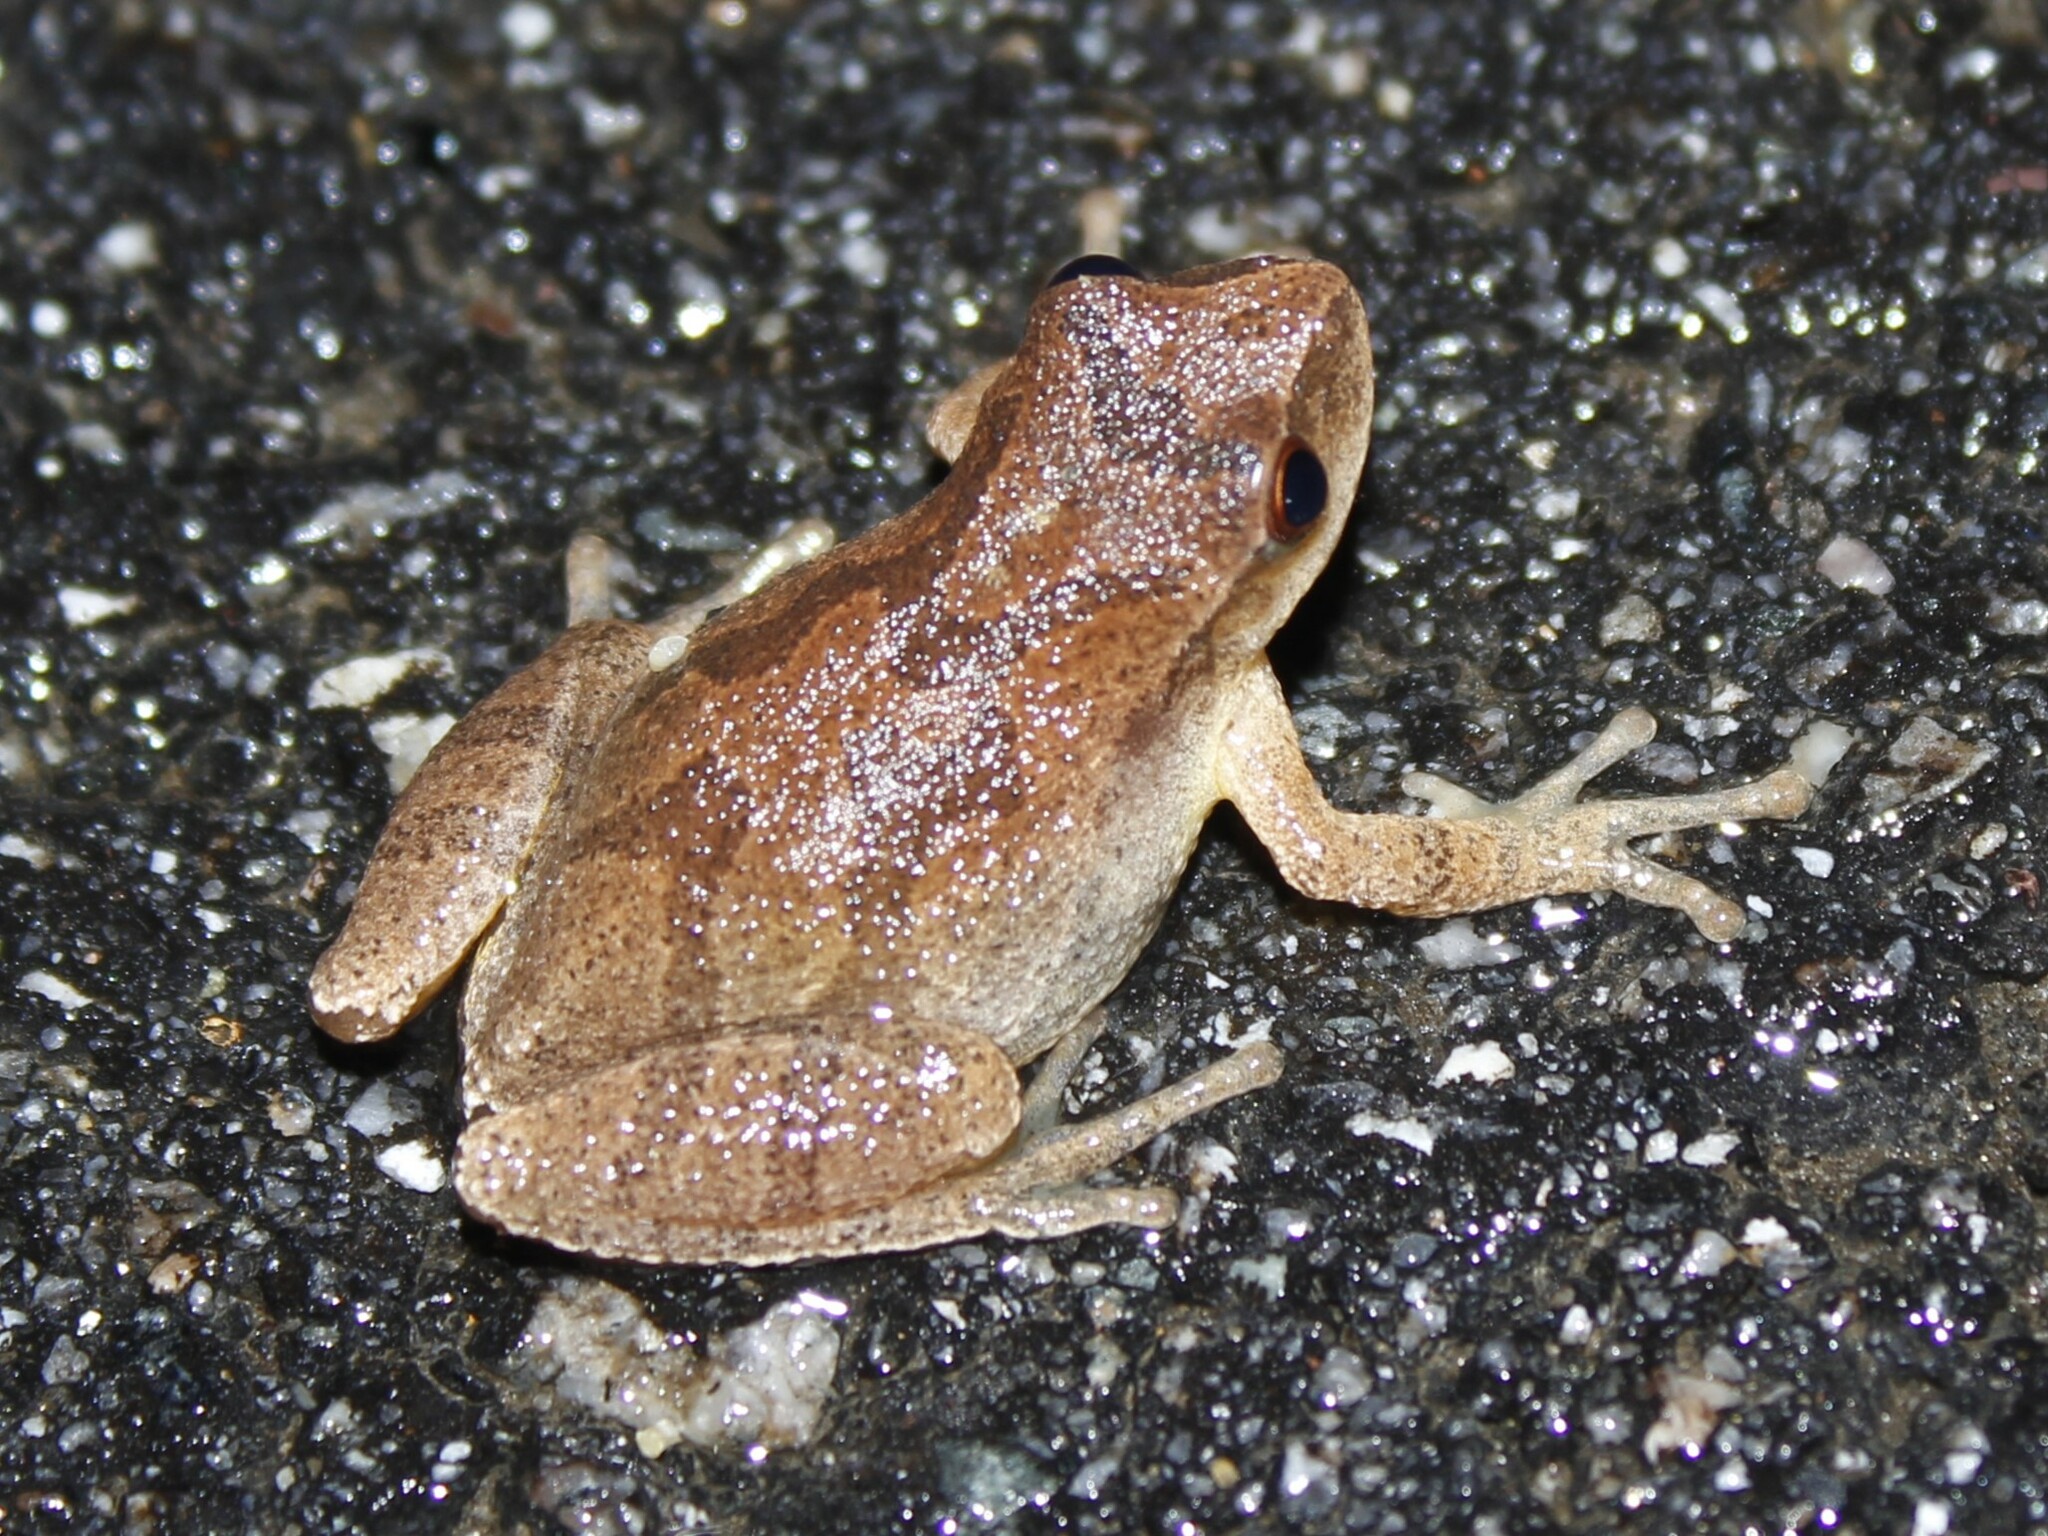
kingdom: Animalia
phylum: Chordata
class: Amphibia
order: Anura
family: Hylidae
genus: Pseudacris
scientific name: Pseudacris crucifer
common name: Spring peeper
